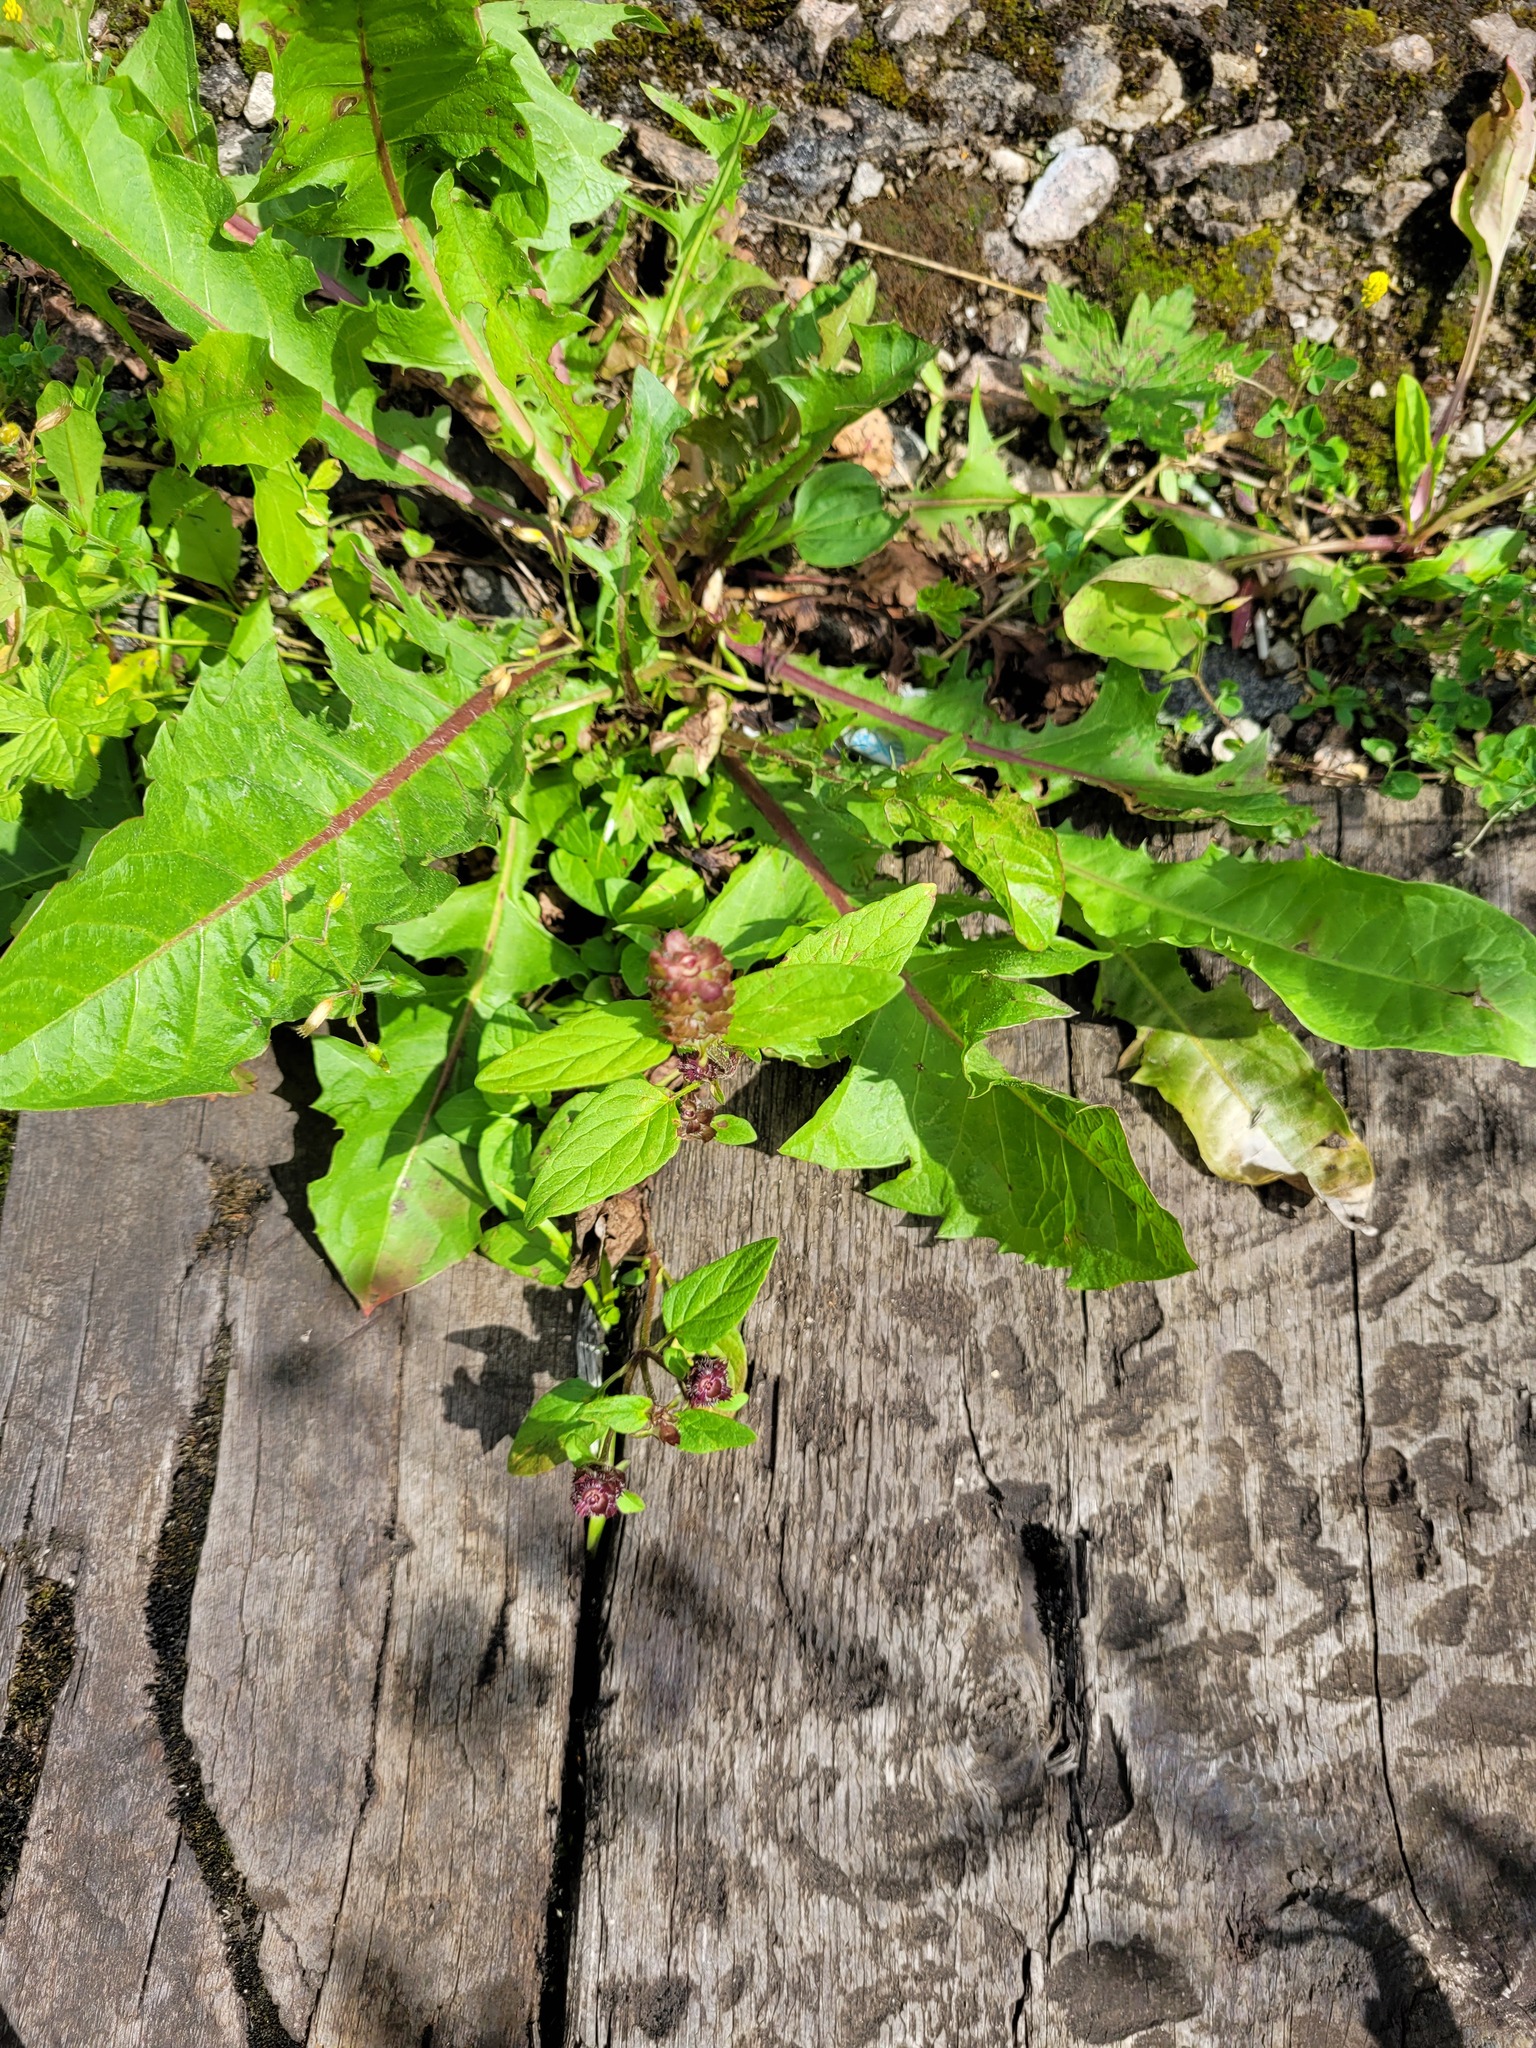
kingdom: Plantae
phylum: Tracheophyta
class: Magnoliopsida
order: Lamiales
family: Lamiaceae
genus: Prunella
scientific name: Prunella vulgaris
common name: Heal-all
